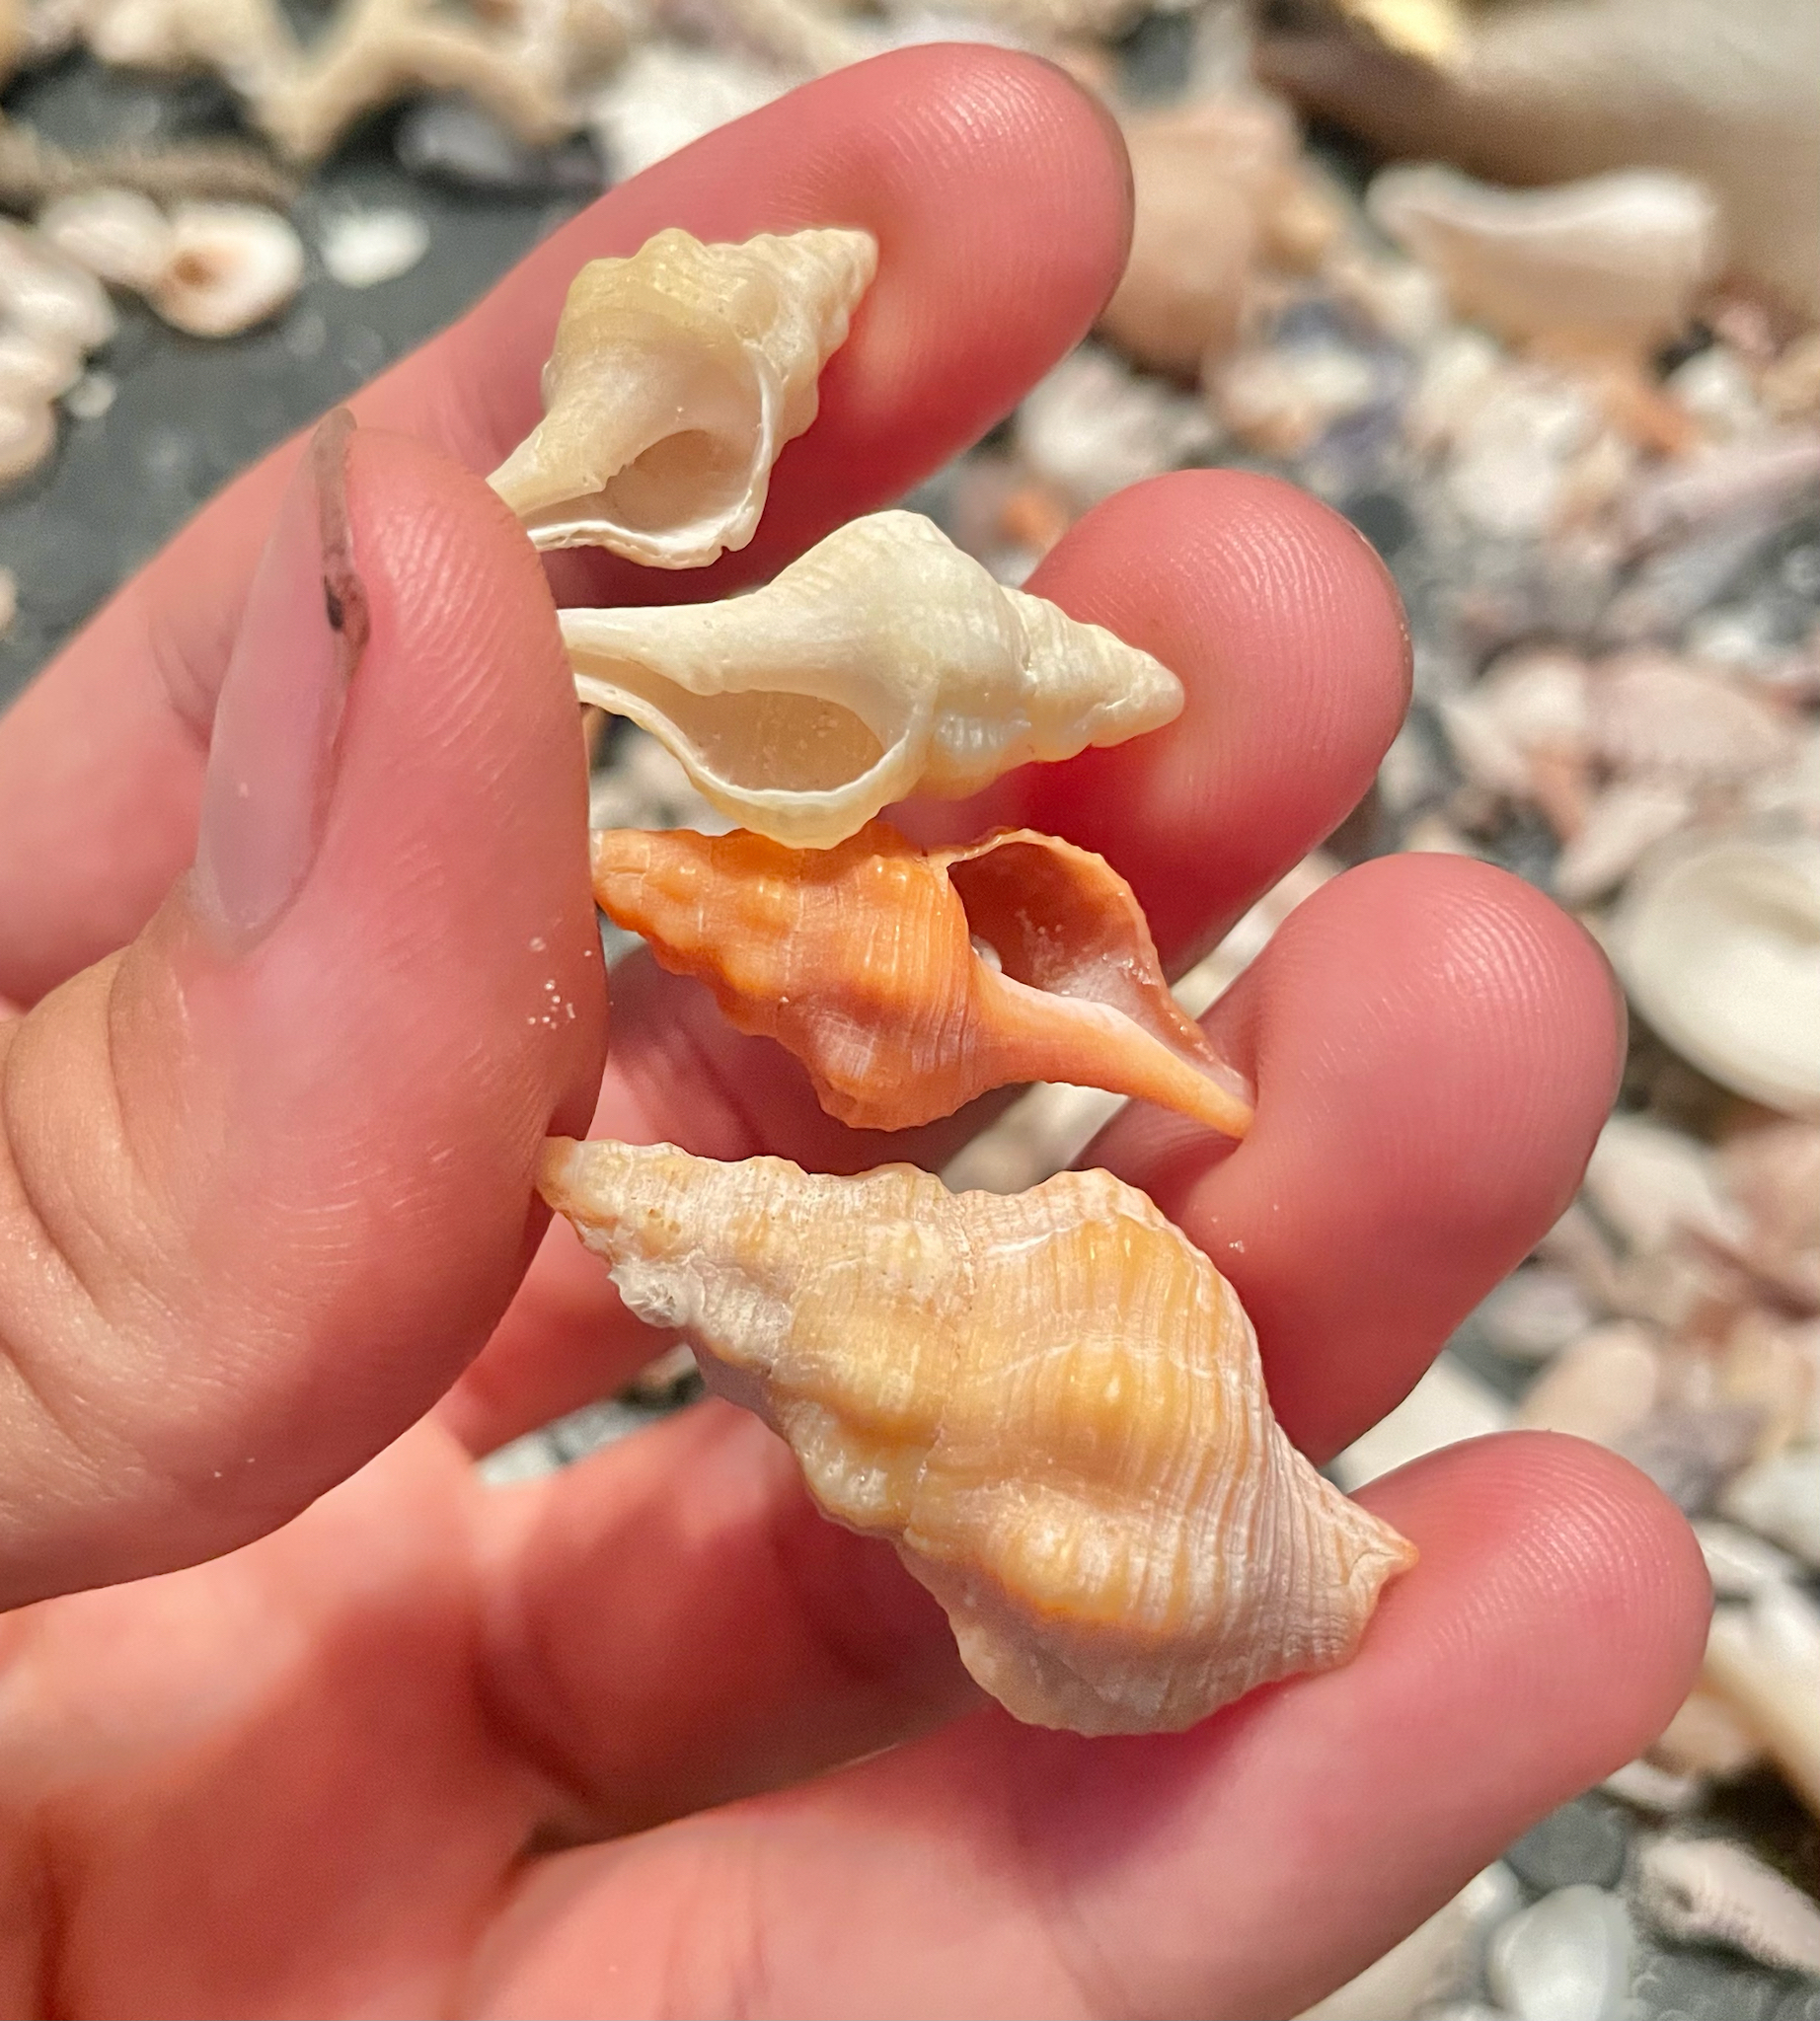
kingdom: Animalia
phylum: Mollusca
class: Gastropoda
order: Neogastropoda
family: Fasciolariidae
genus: Triplofusus
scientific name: Triplofusus giganteus
